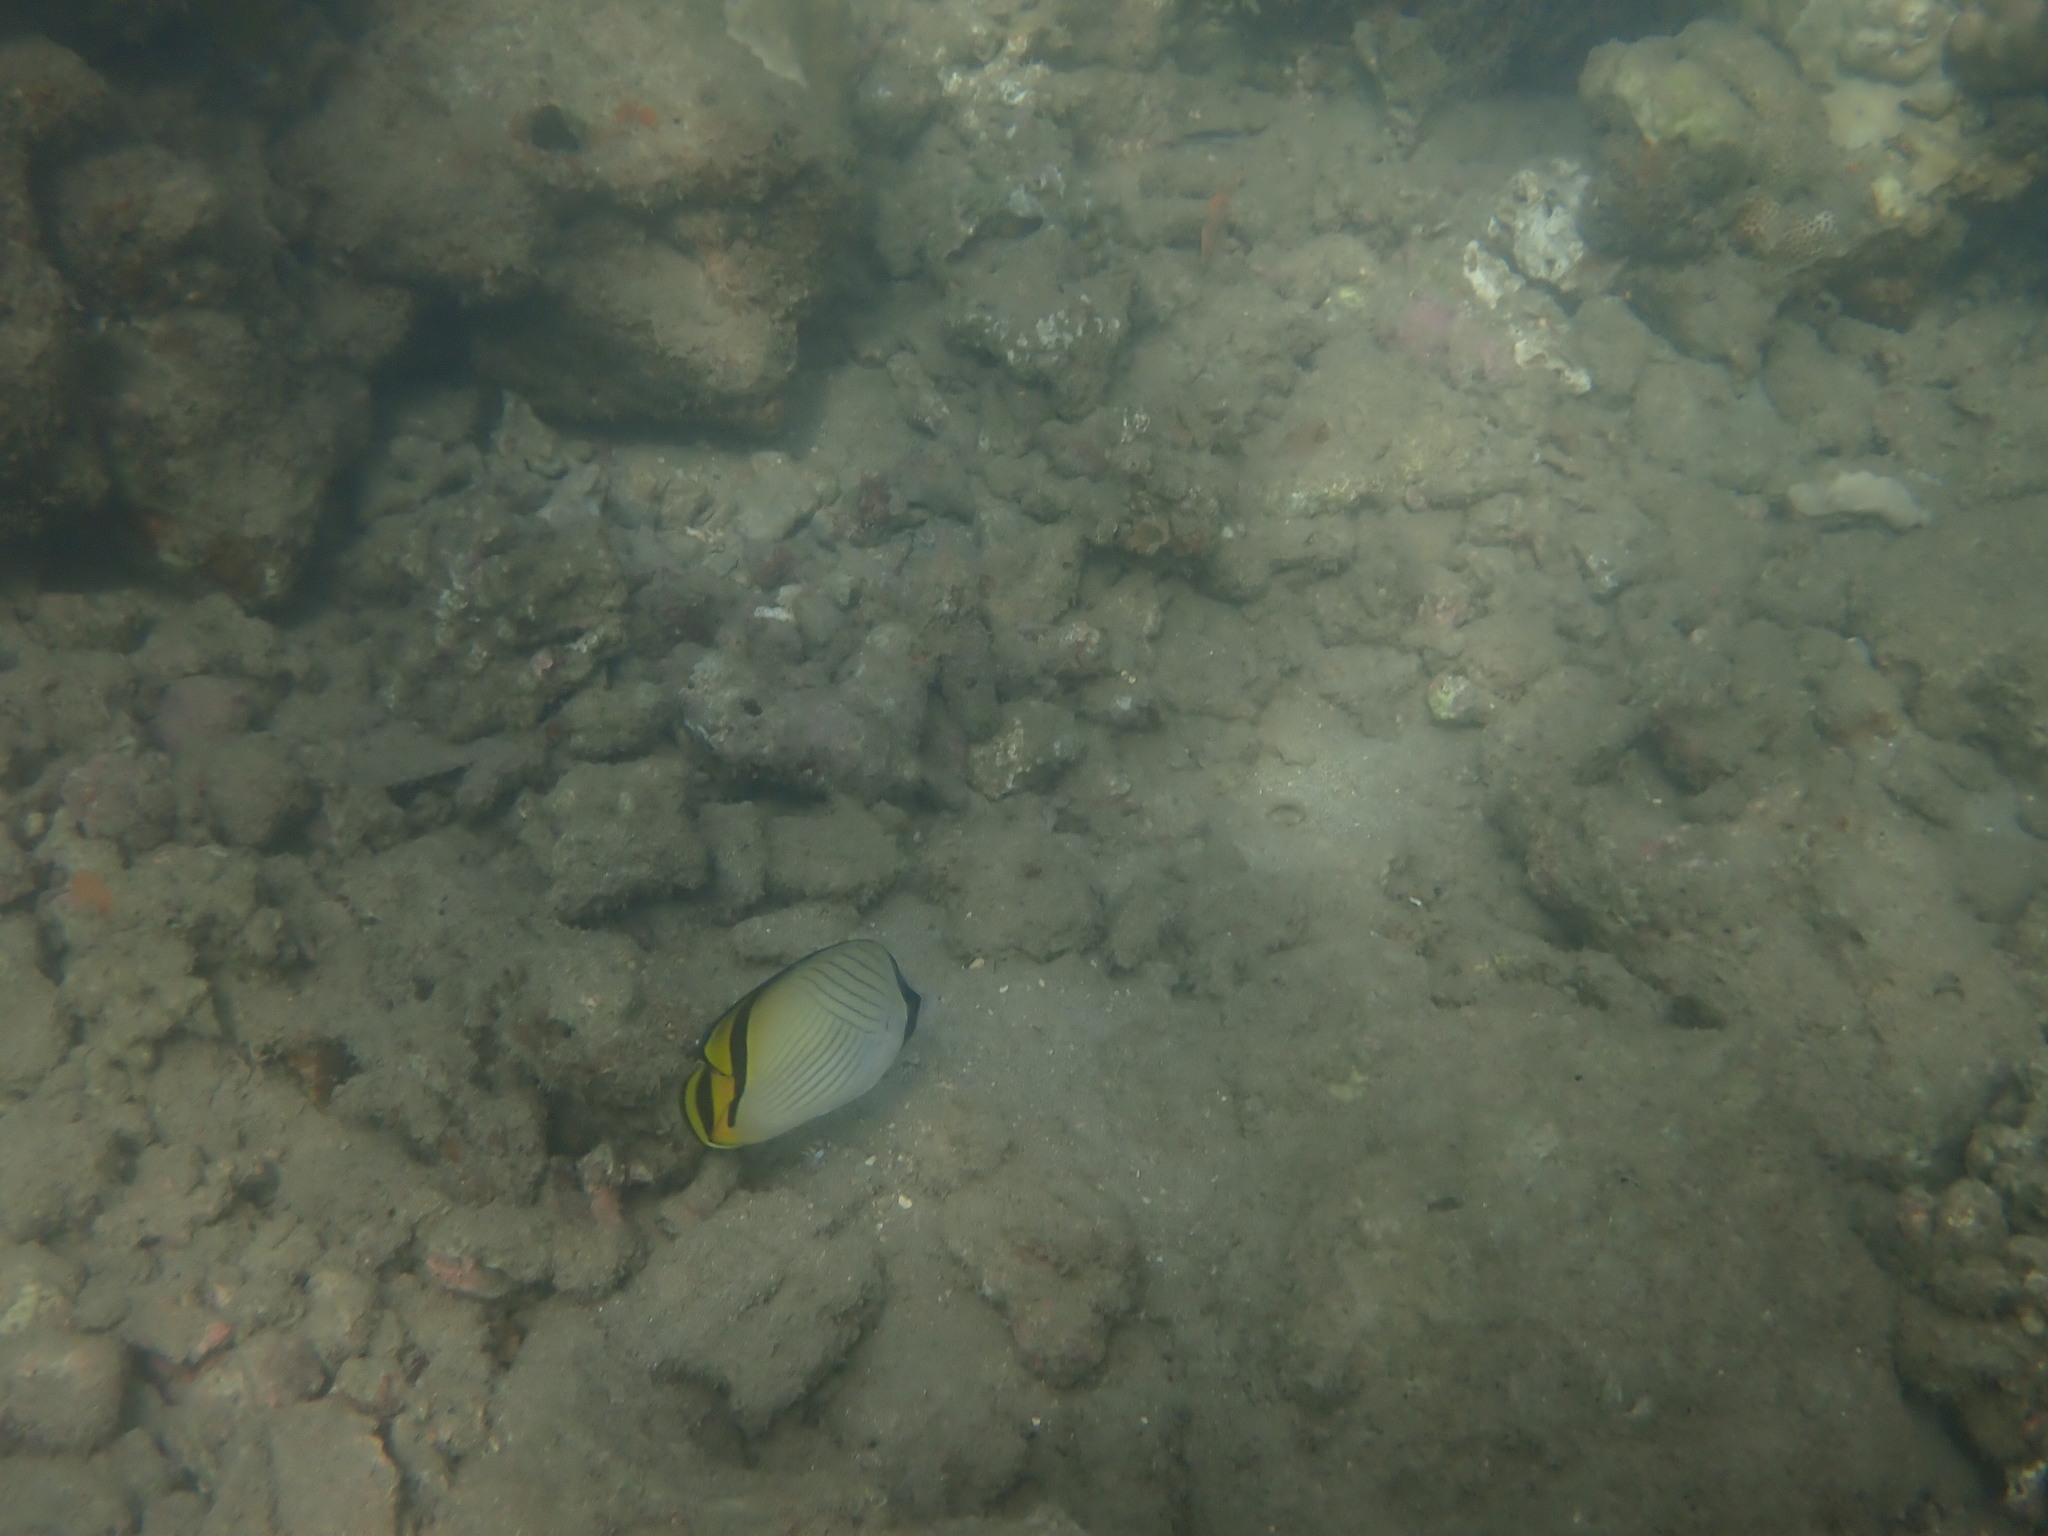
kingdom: Animalia
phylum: Chordata
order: Perciformes
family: Chaetodontidae
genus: Chaetodon
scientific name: Chaetodon vagabundus
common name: Vagabond butterflyfish
